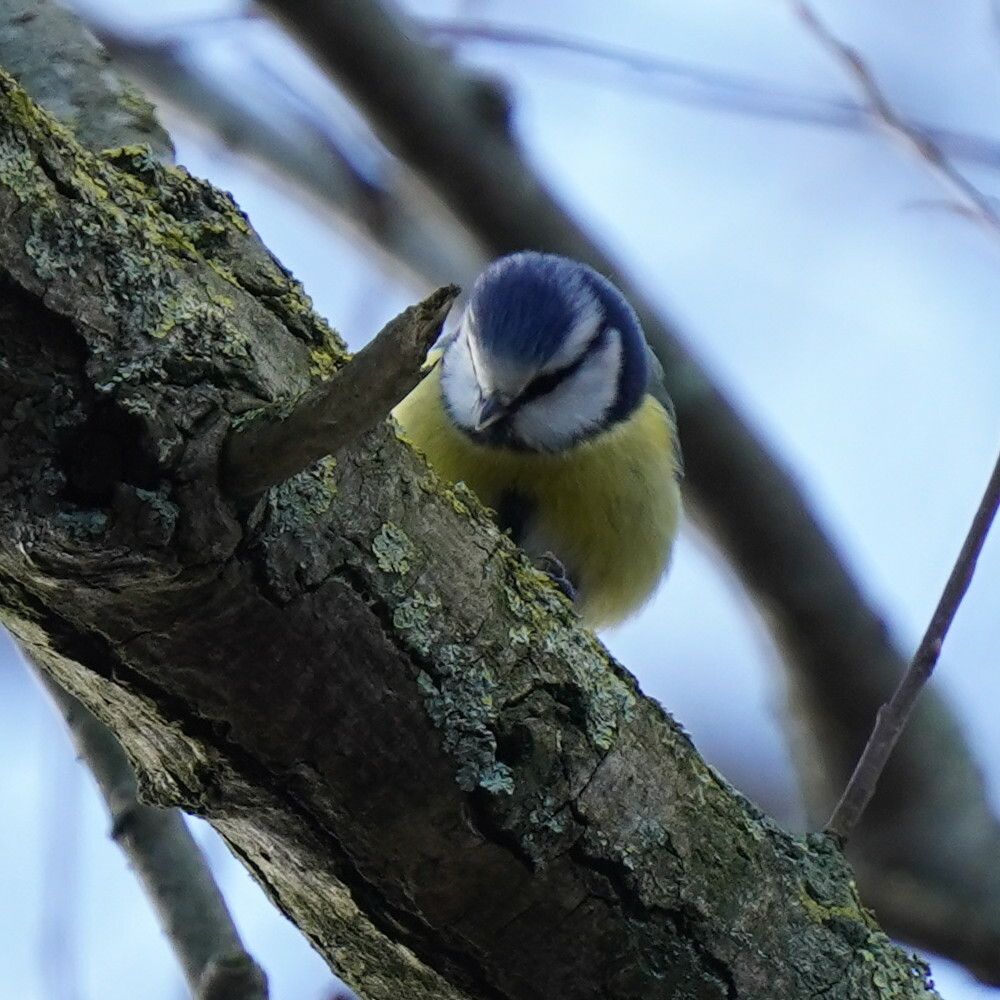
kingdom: Animalia
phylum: Chordata
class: Aves
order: Passeriformes
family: Paridae
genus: Cyanistes
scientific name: Cyanistes caeruleus
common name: Eurasian blue tit
